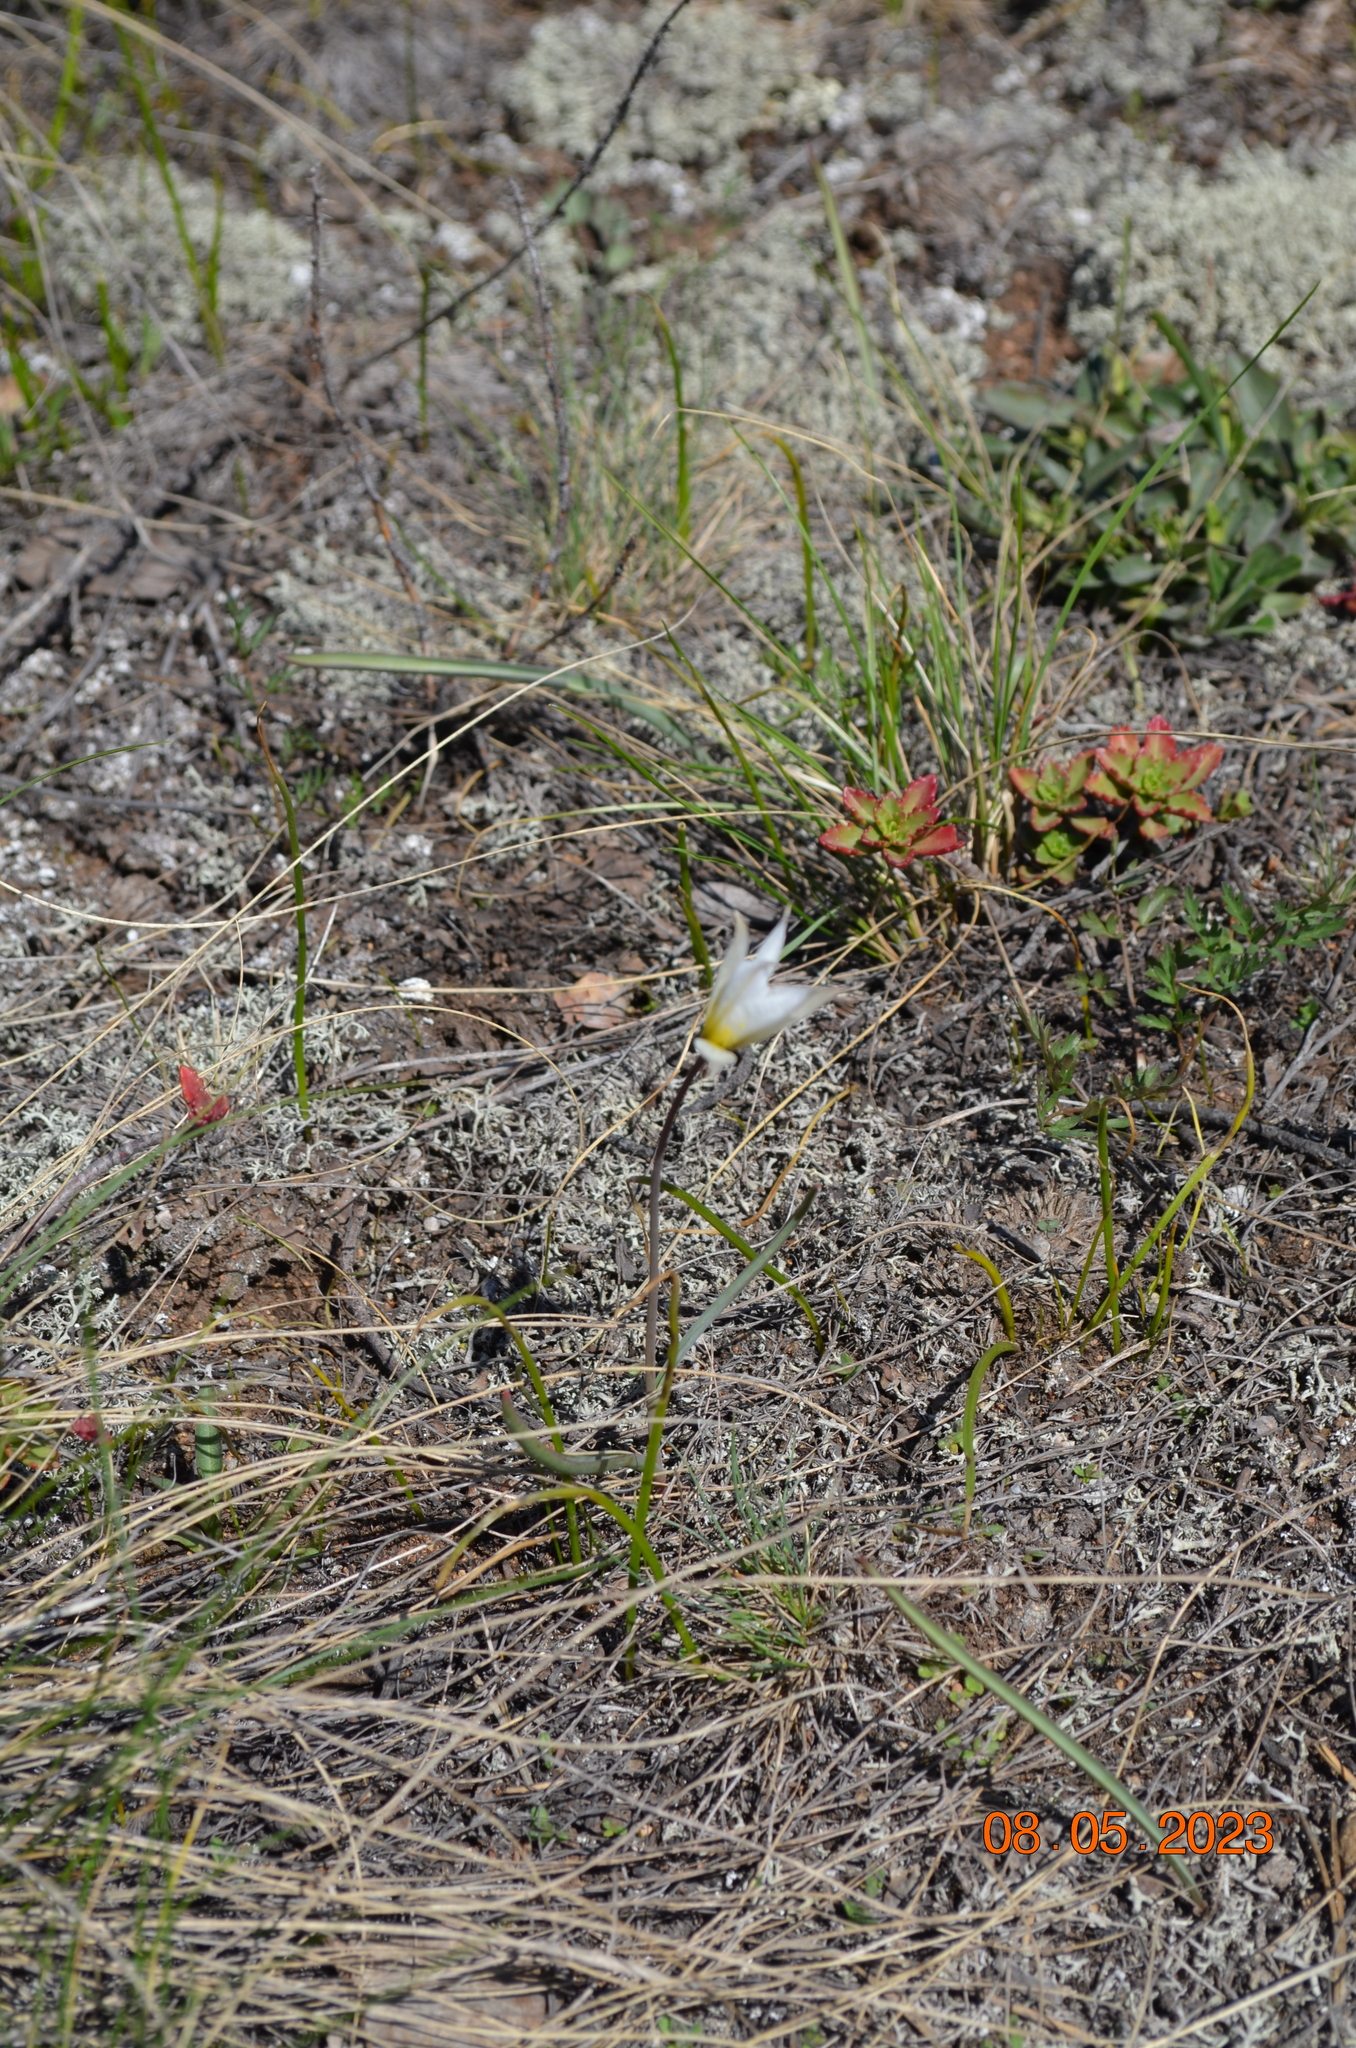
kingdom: Plantae
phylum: Tracheophyta
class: Liliopsida
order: Liliales
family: Liliaceae
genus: Tulipa
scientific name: Tulipa patens
